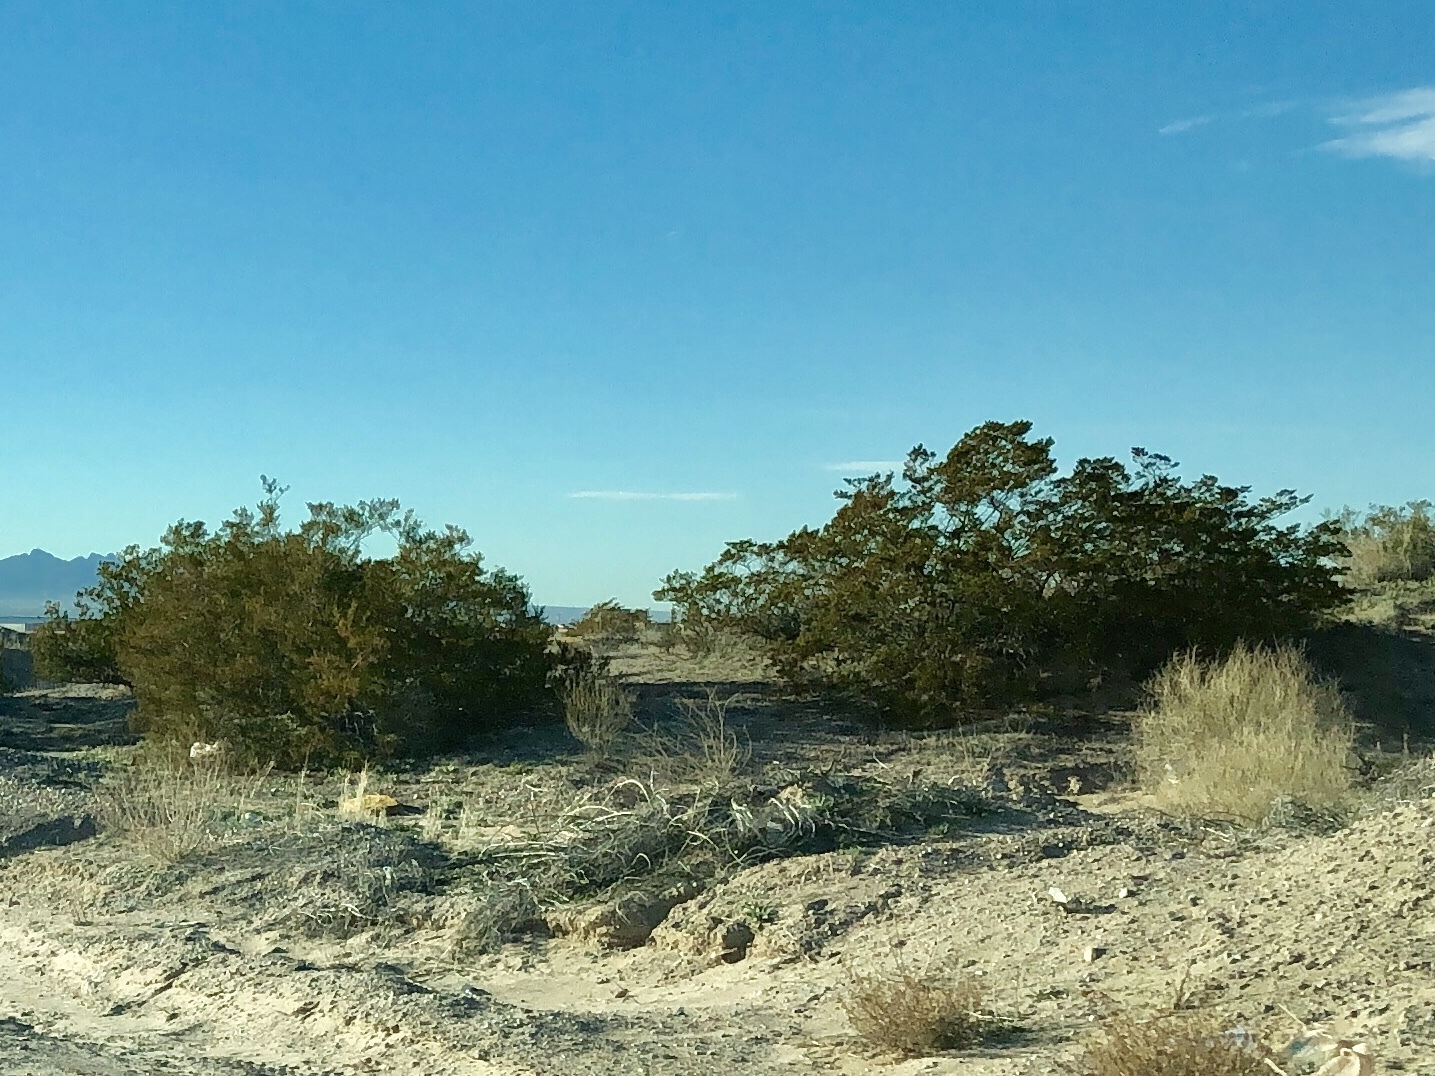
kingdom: Plantae
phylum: Tracheophyta
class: Magnoliopsida
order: Zygophyllales
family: Zygophyllaceae
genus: Larrea
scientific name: Larrea tridentata
